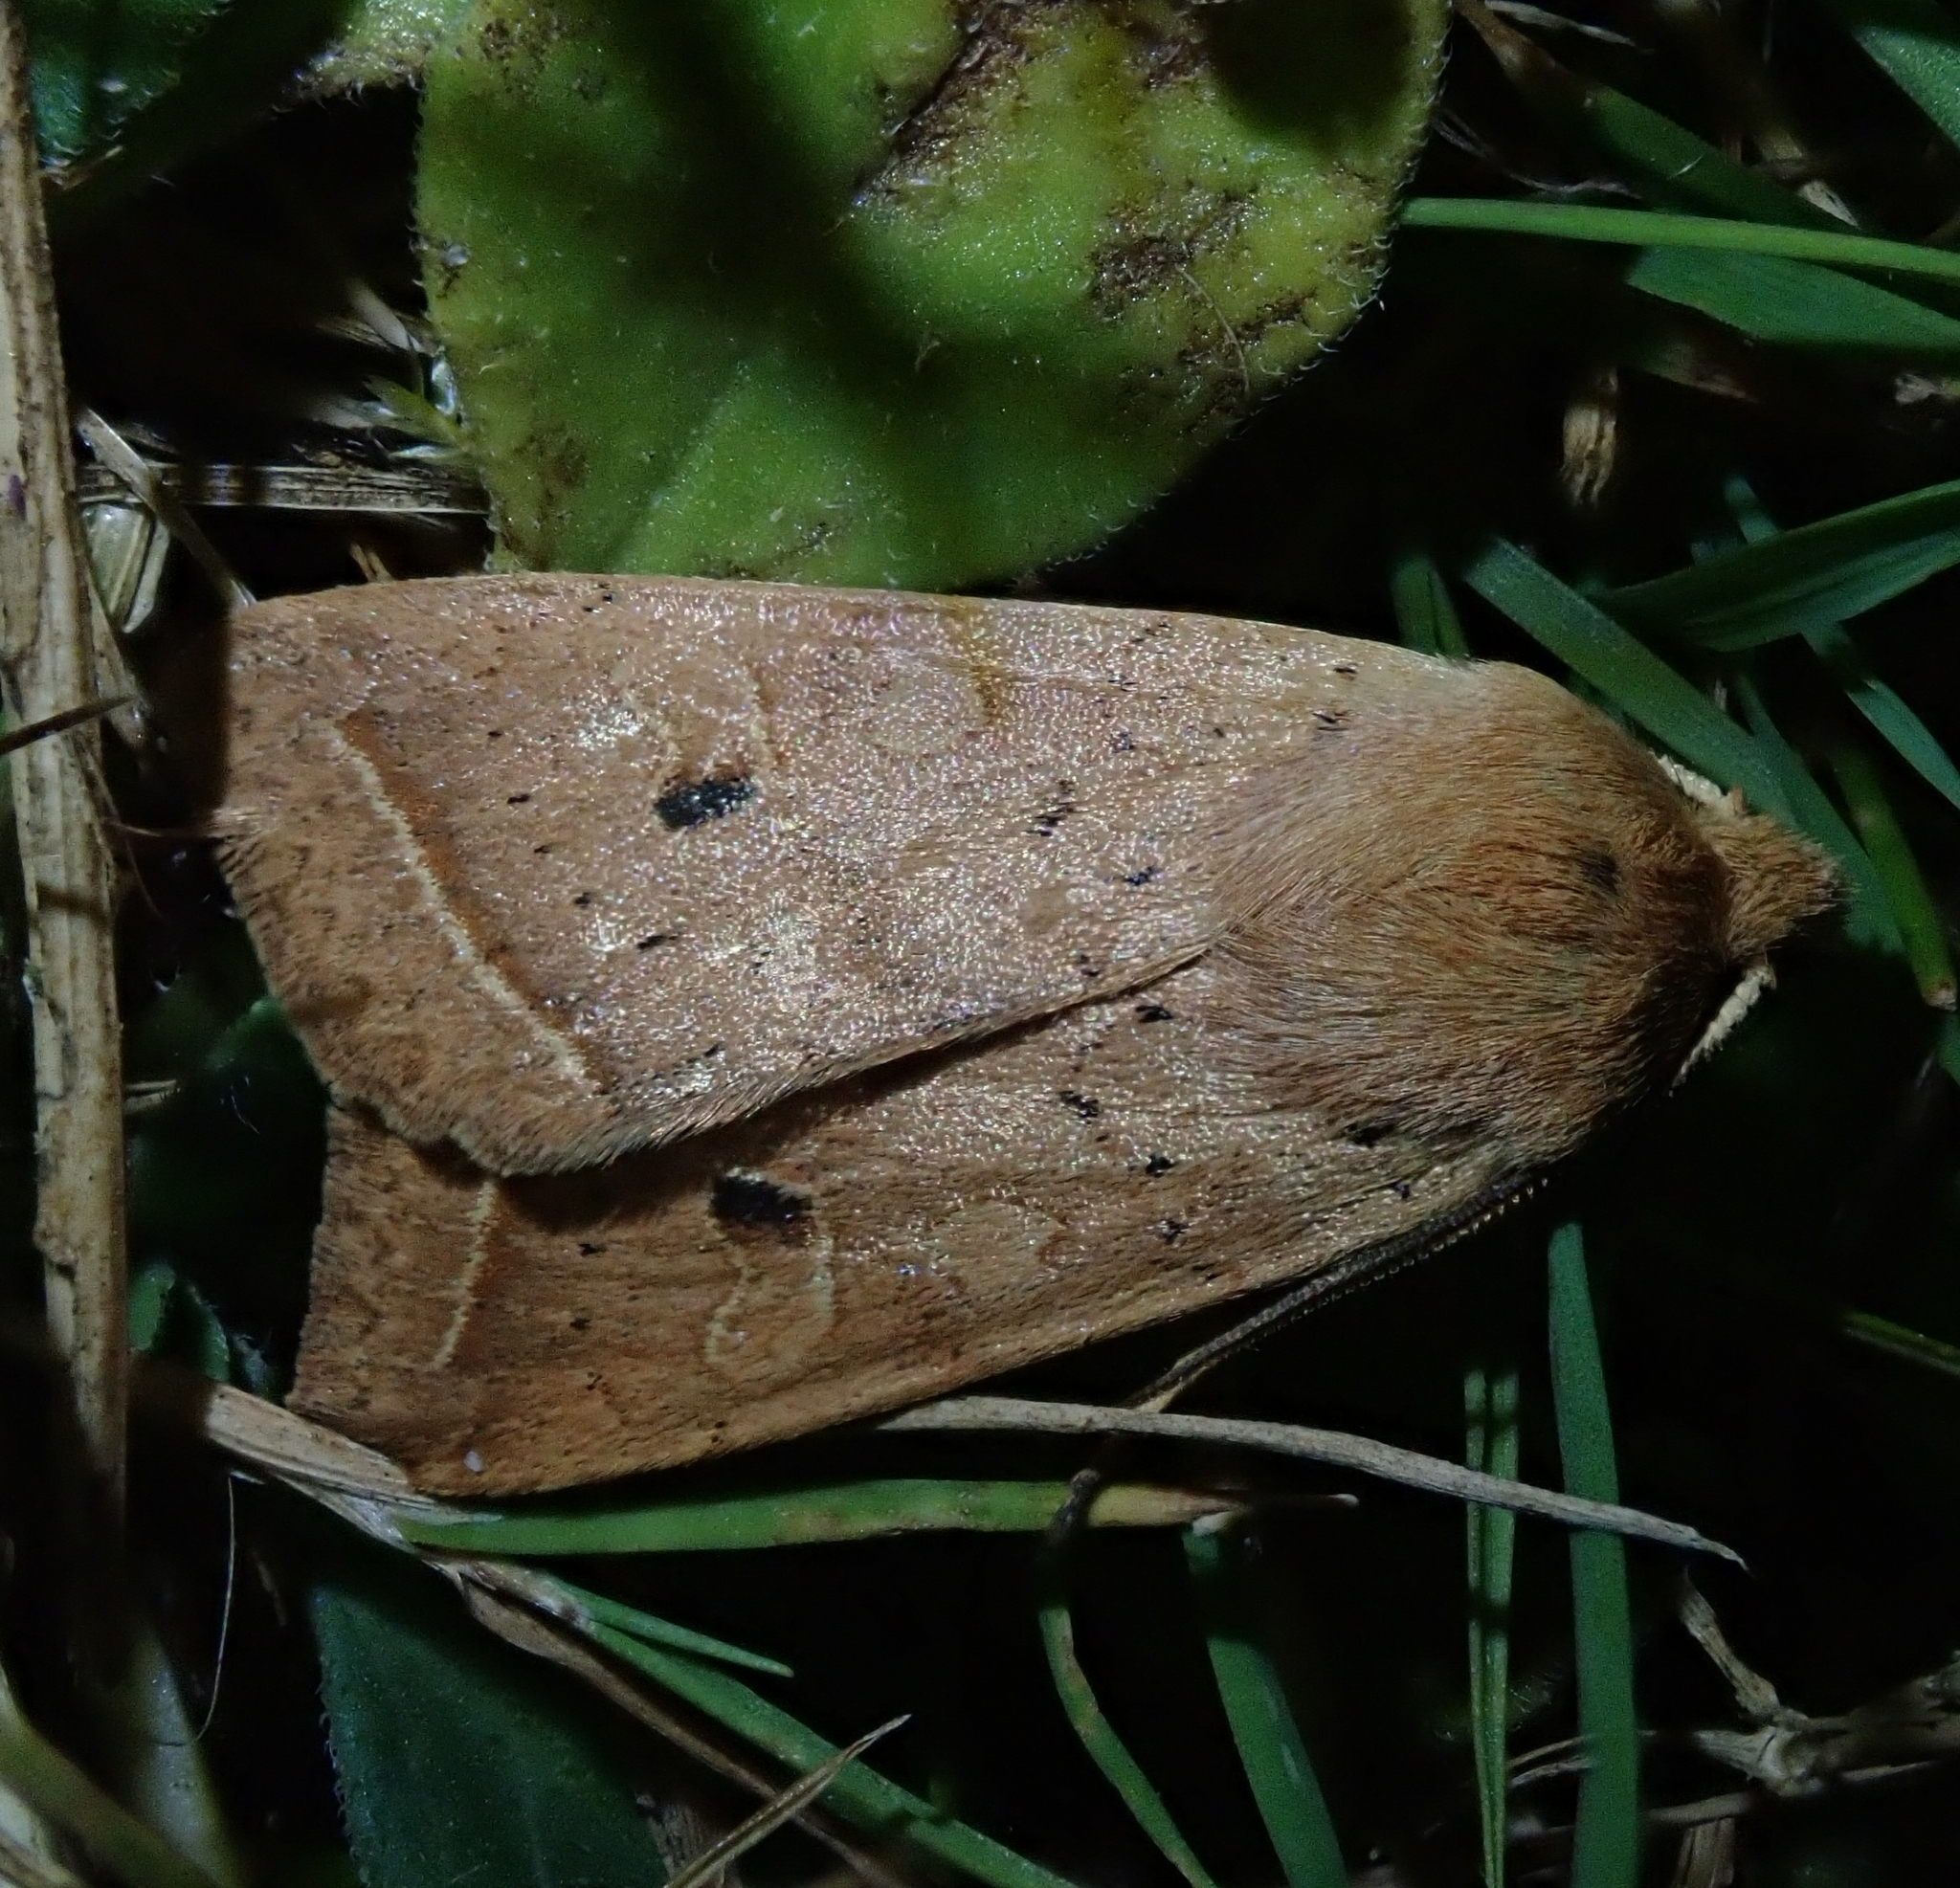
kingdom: Animalia
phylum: Arthropoda
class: Insecta
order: Lepidoptera
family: Noctuidae
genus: Agrochola
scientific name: Agrochola macilenta
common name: Yellow-line quaker
